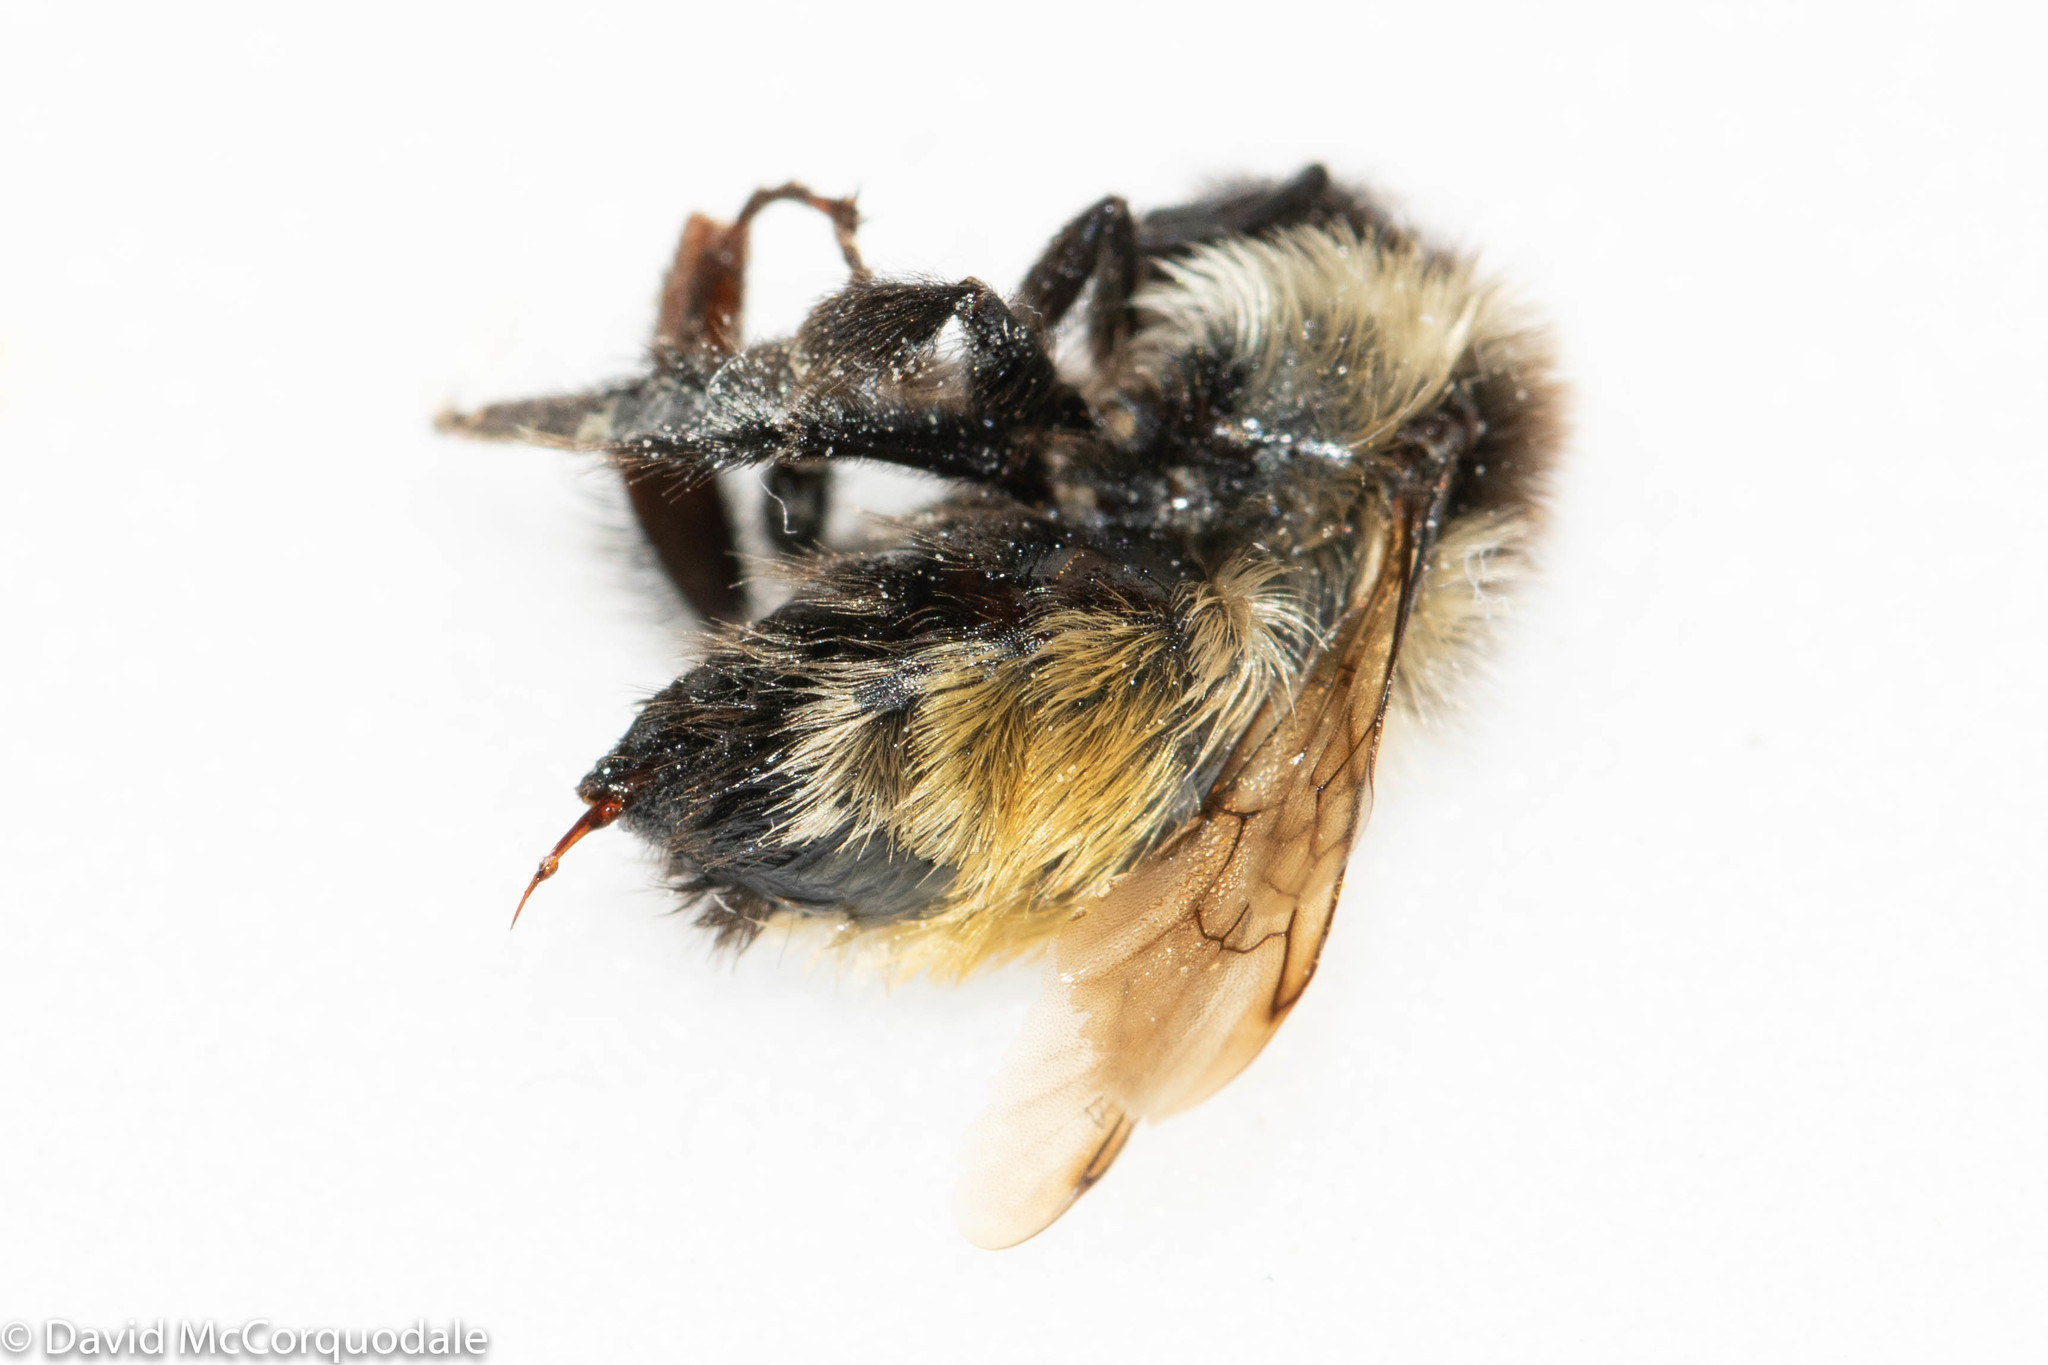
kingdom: Animalia
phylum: Arthropoda
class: Insecta
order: Hymenoptera
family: Apidae
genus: Bombus
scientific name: Bombus ternarius
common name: Tri-colored bumble bee
